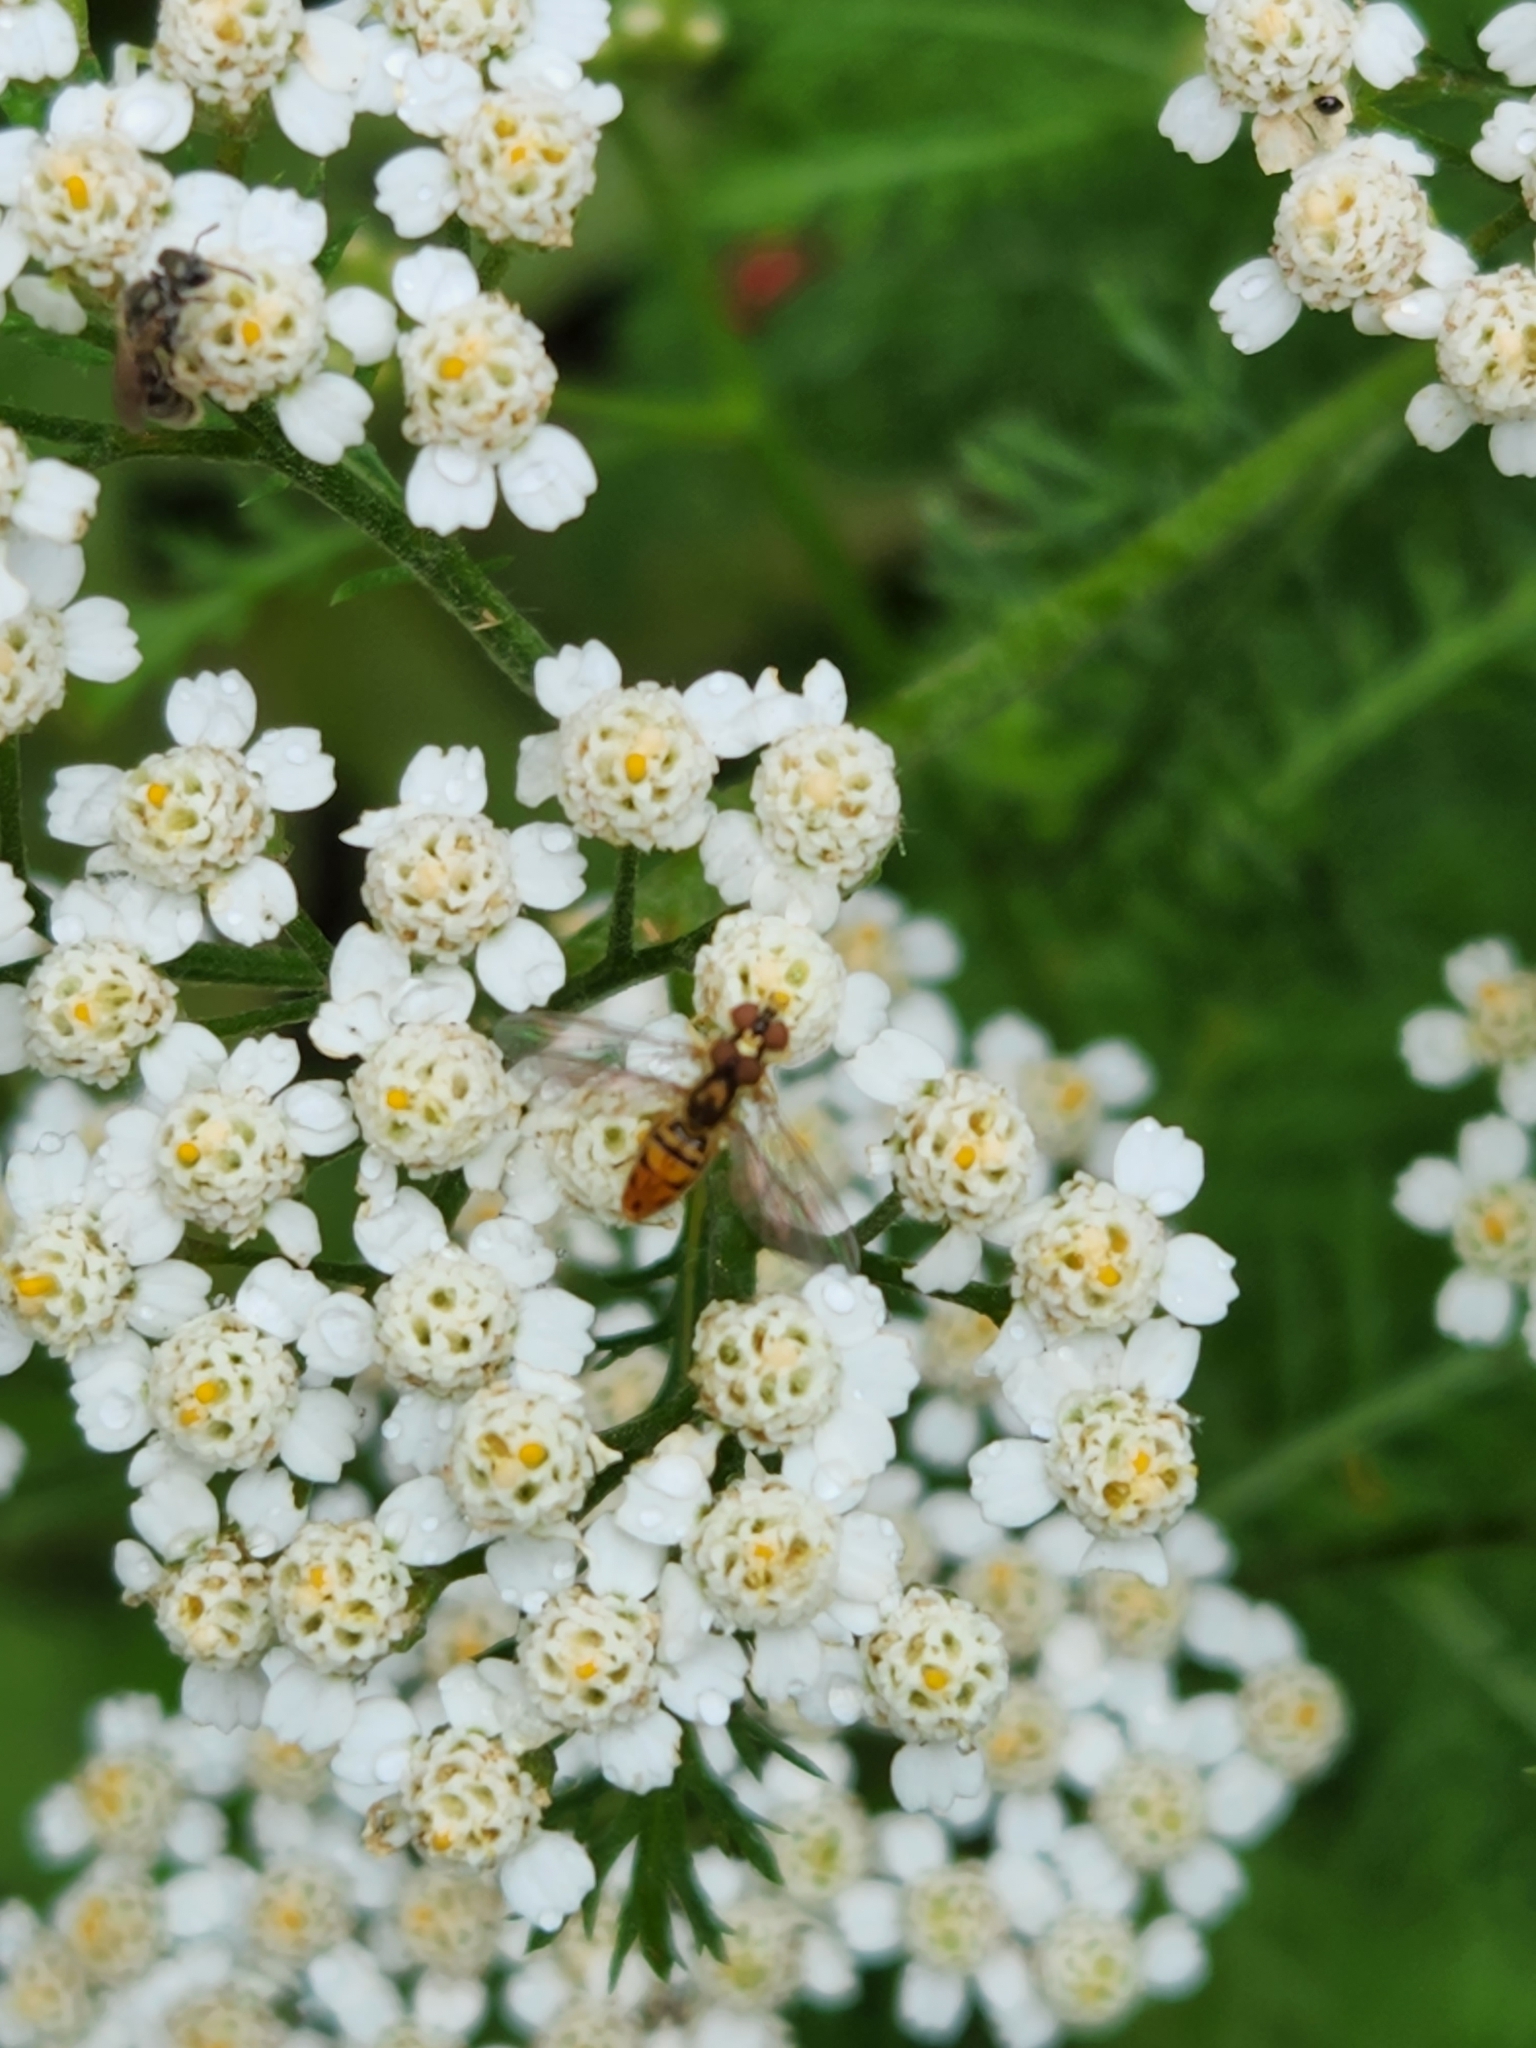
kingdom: Animalia
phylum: Arthropoda
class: Insecta
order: Diptera
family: Syrphidae
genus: Toxomerus
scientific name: Toxomerus marginatus
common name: Syrphid fly
